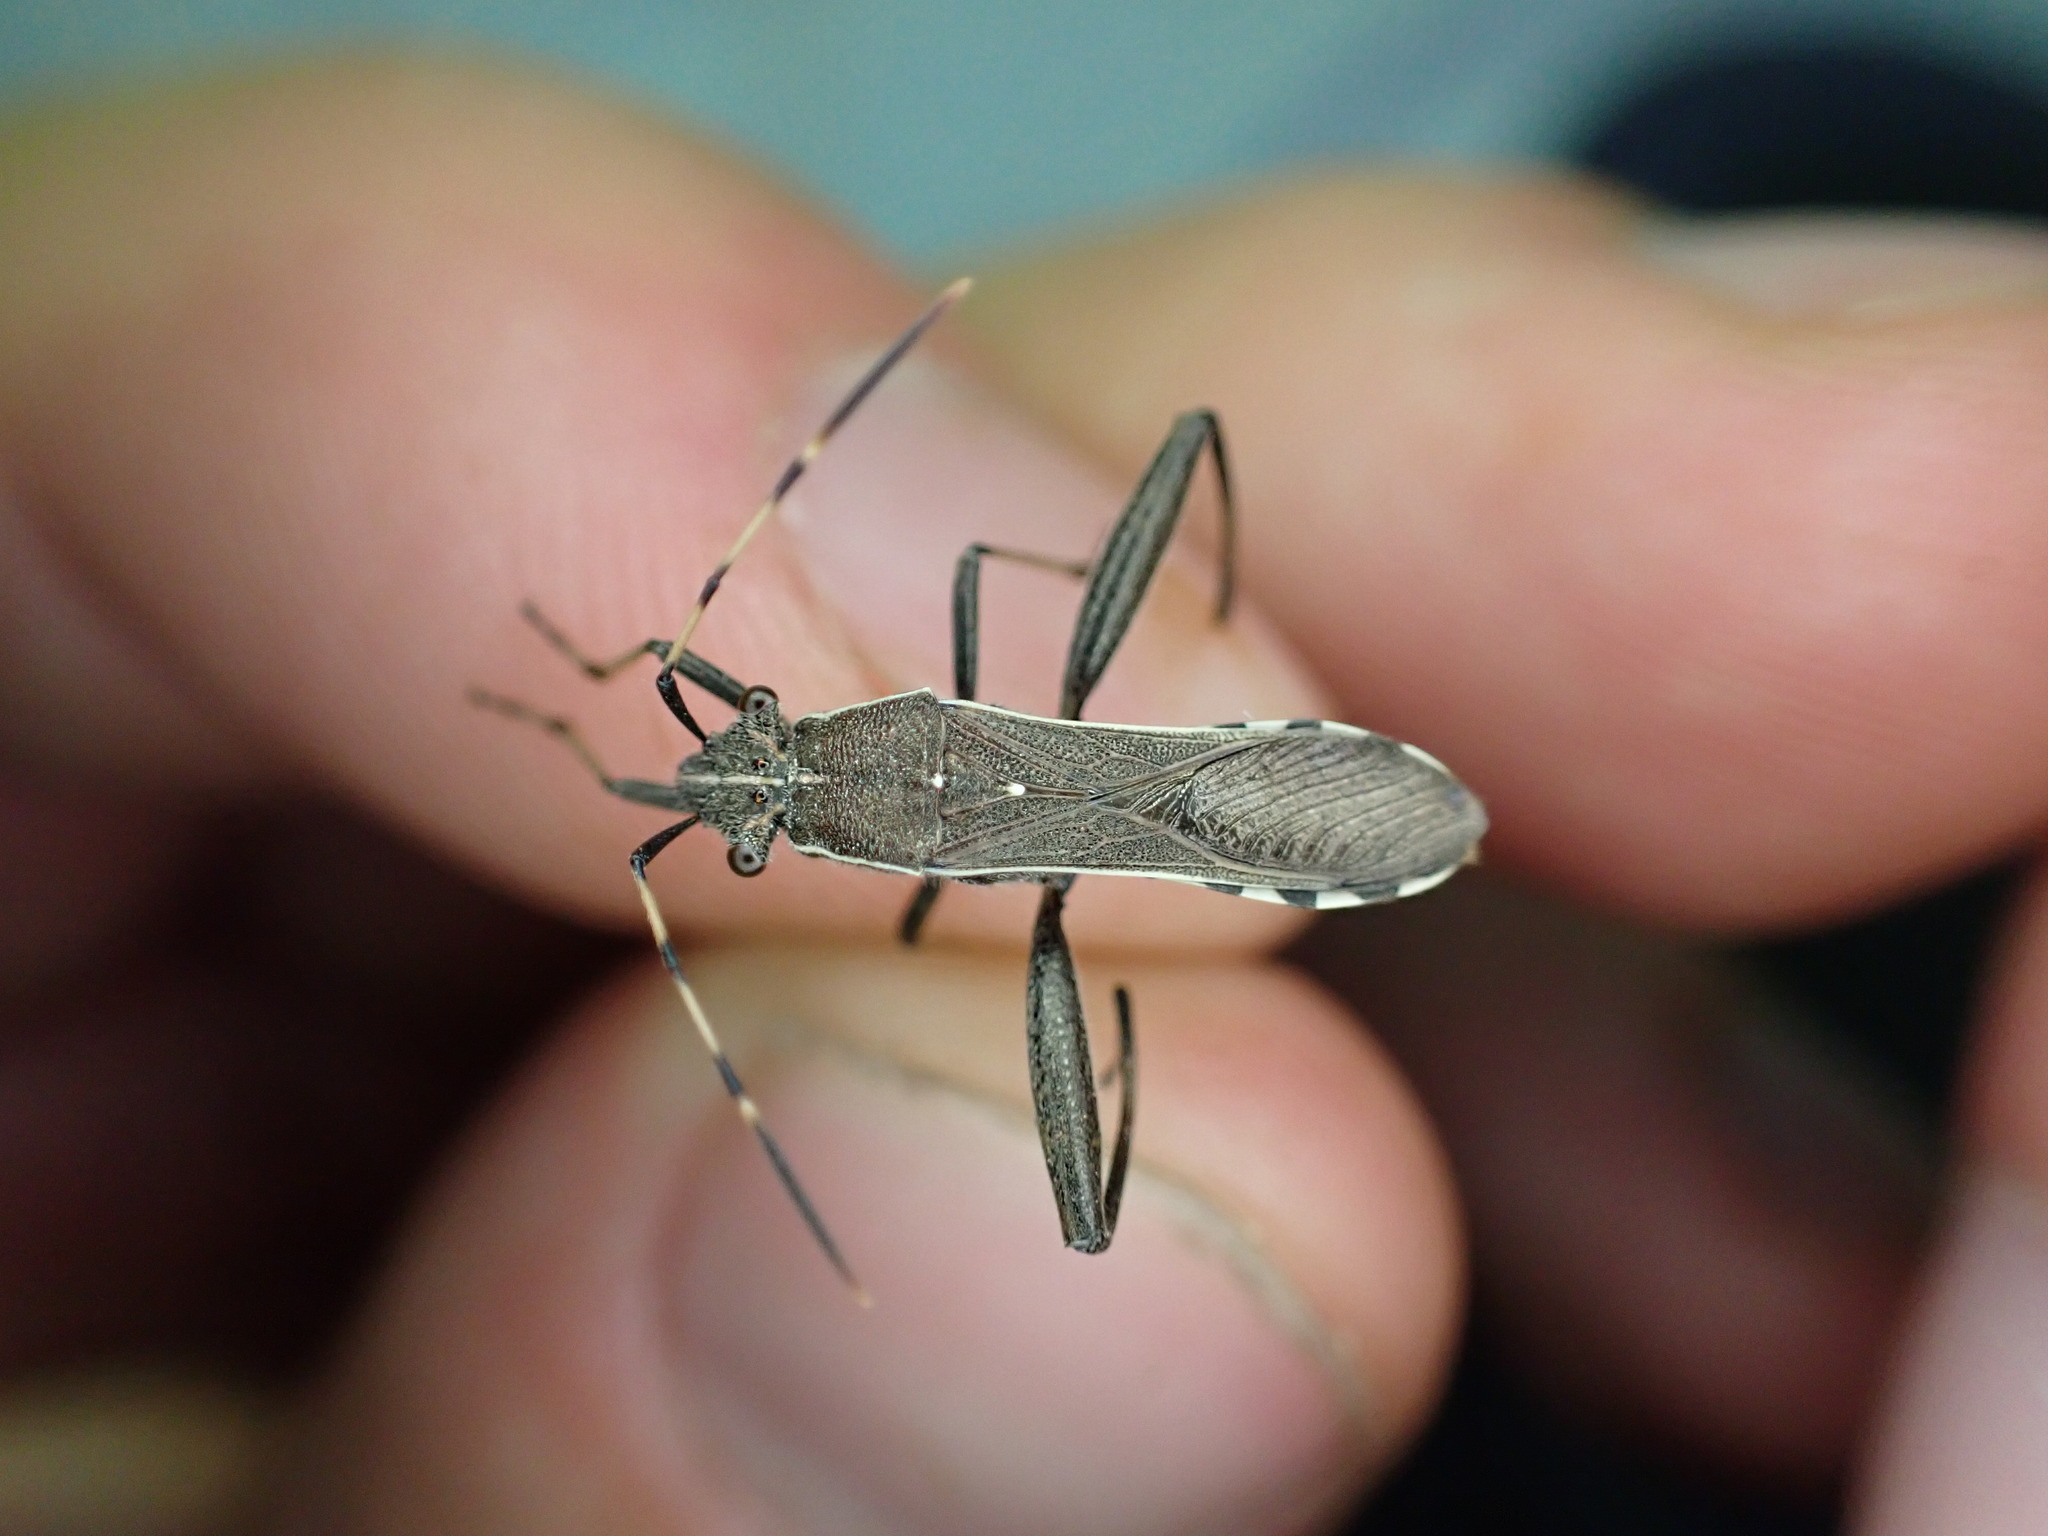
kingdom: Animalia
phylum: Arthropoda
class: Insecta
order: Hemiptera
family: Alydidae
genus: Camptopus
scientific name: Camptopus lateralis
